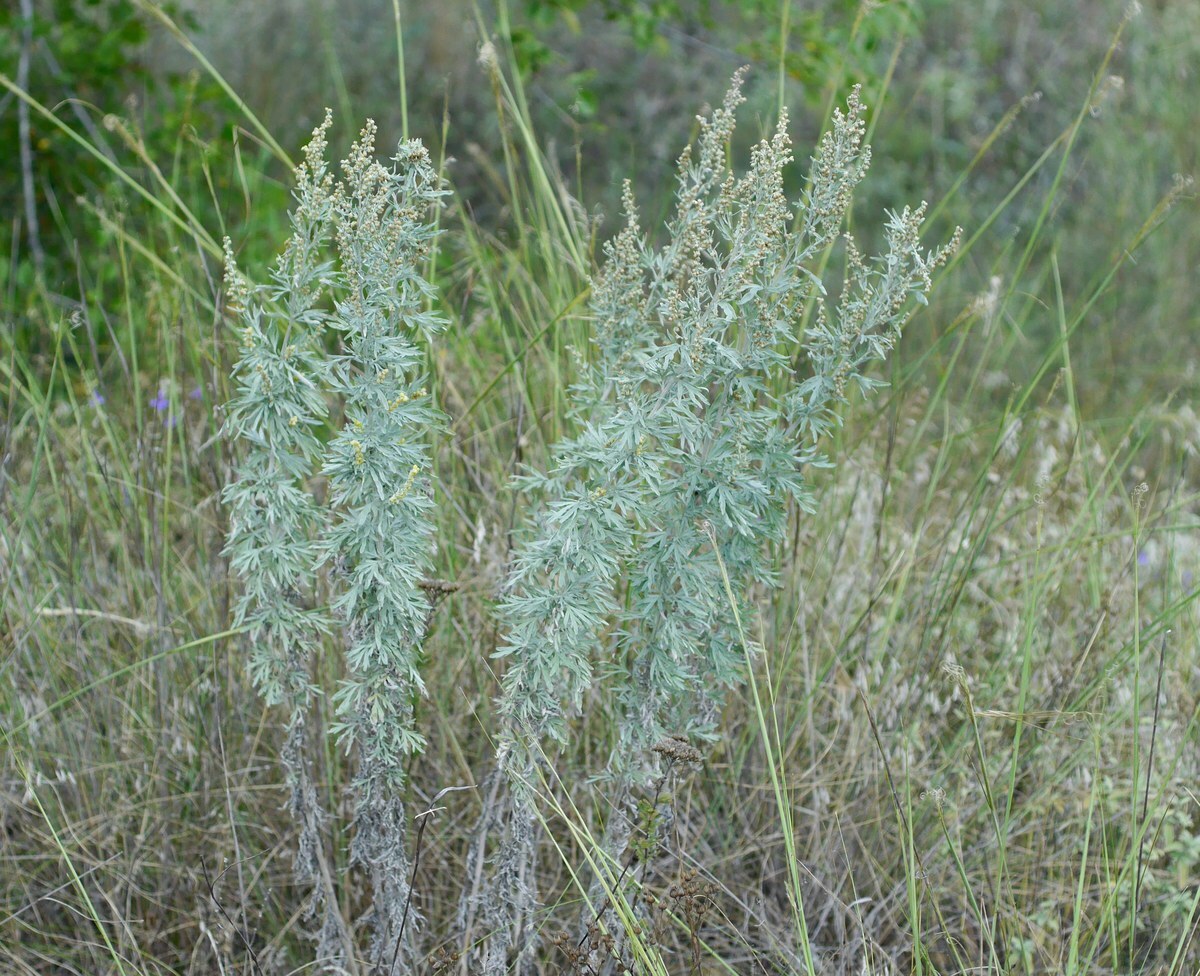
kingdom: Plantae
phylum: Tracheophyta
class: Magnoliopsida
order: Asterales
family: Asteraceae
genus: Artemisia
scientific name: Artemisia absinthium
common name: Wormwood
